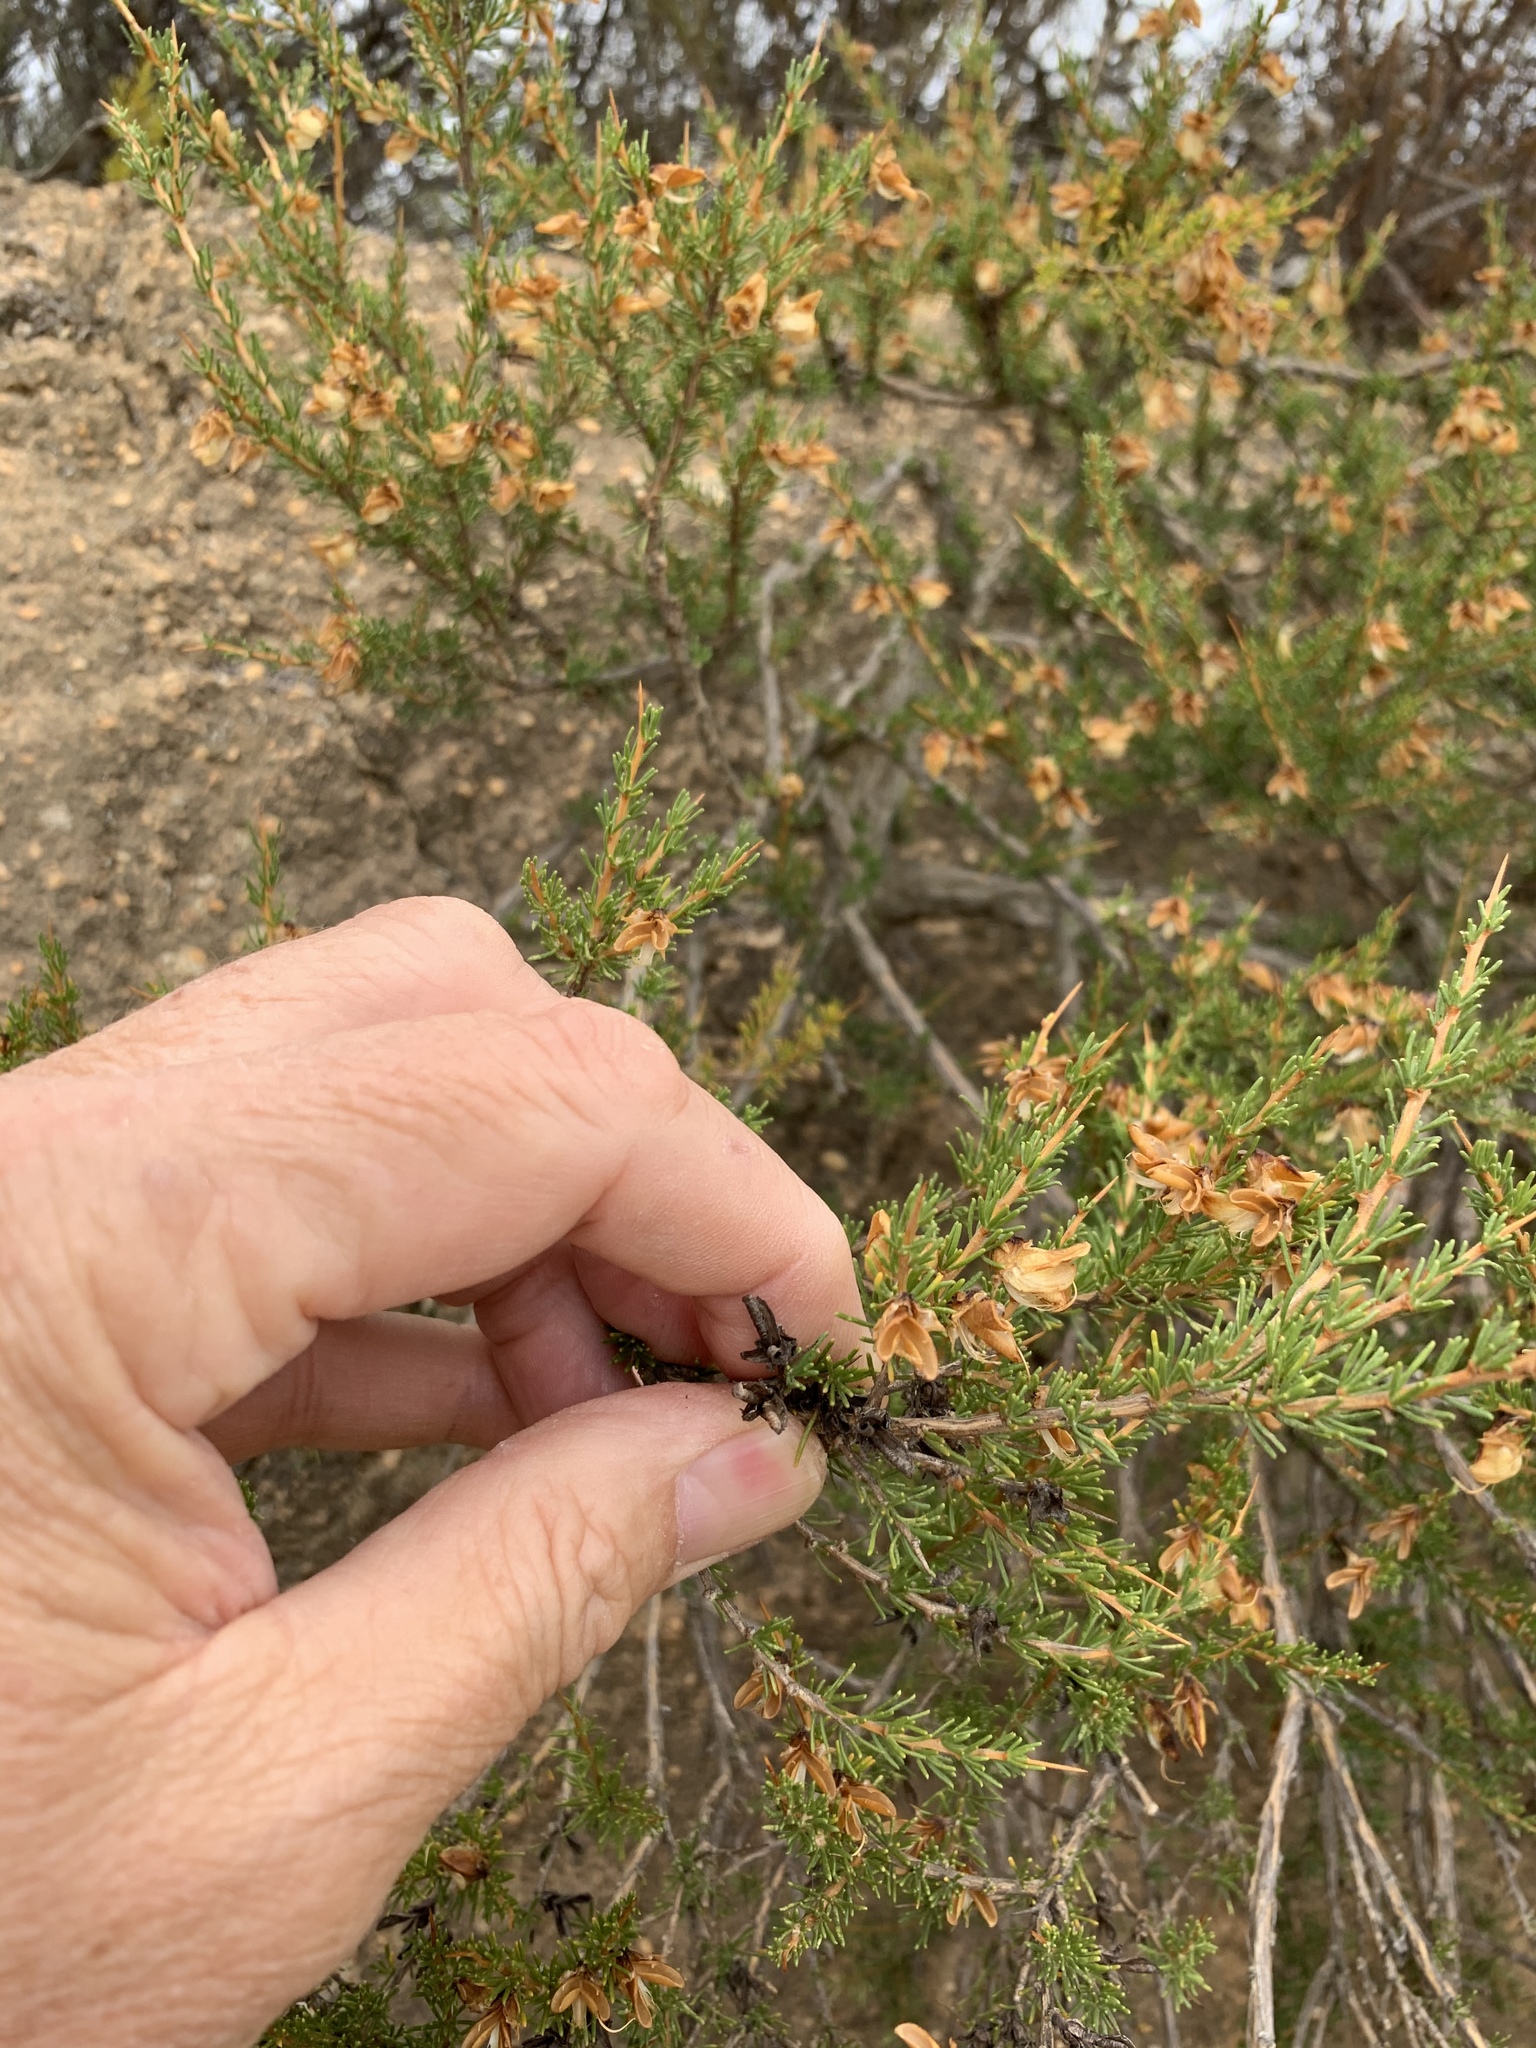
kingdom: Plantae
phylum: Tracheophyta
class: Magnoliopsida
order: Fabales
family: Fabaceae
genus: Aspalathus
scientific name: Aspalathus arida
